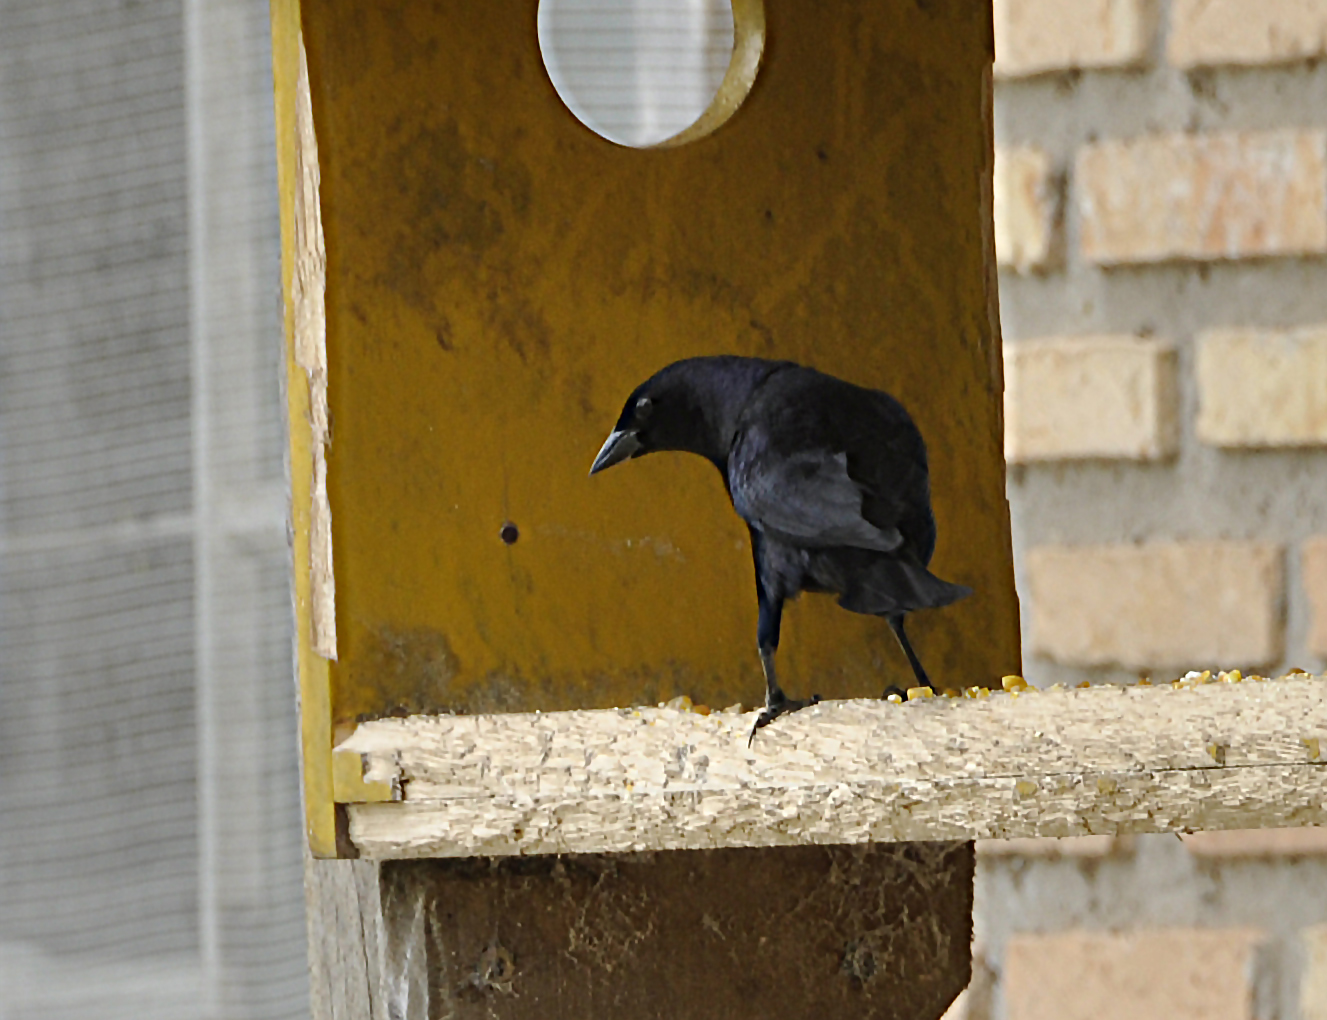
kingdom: Animalia
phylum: Chordata
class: Aves
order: Passeriformes
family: Icteridae
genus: Molothrus
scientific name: Molothrus bonariensis
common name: Shiny cowbird
